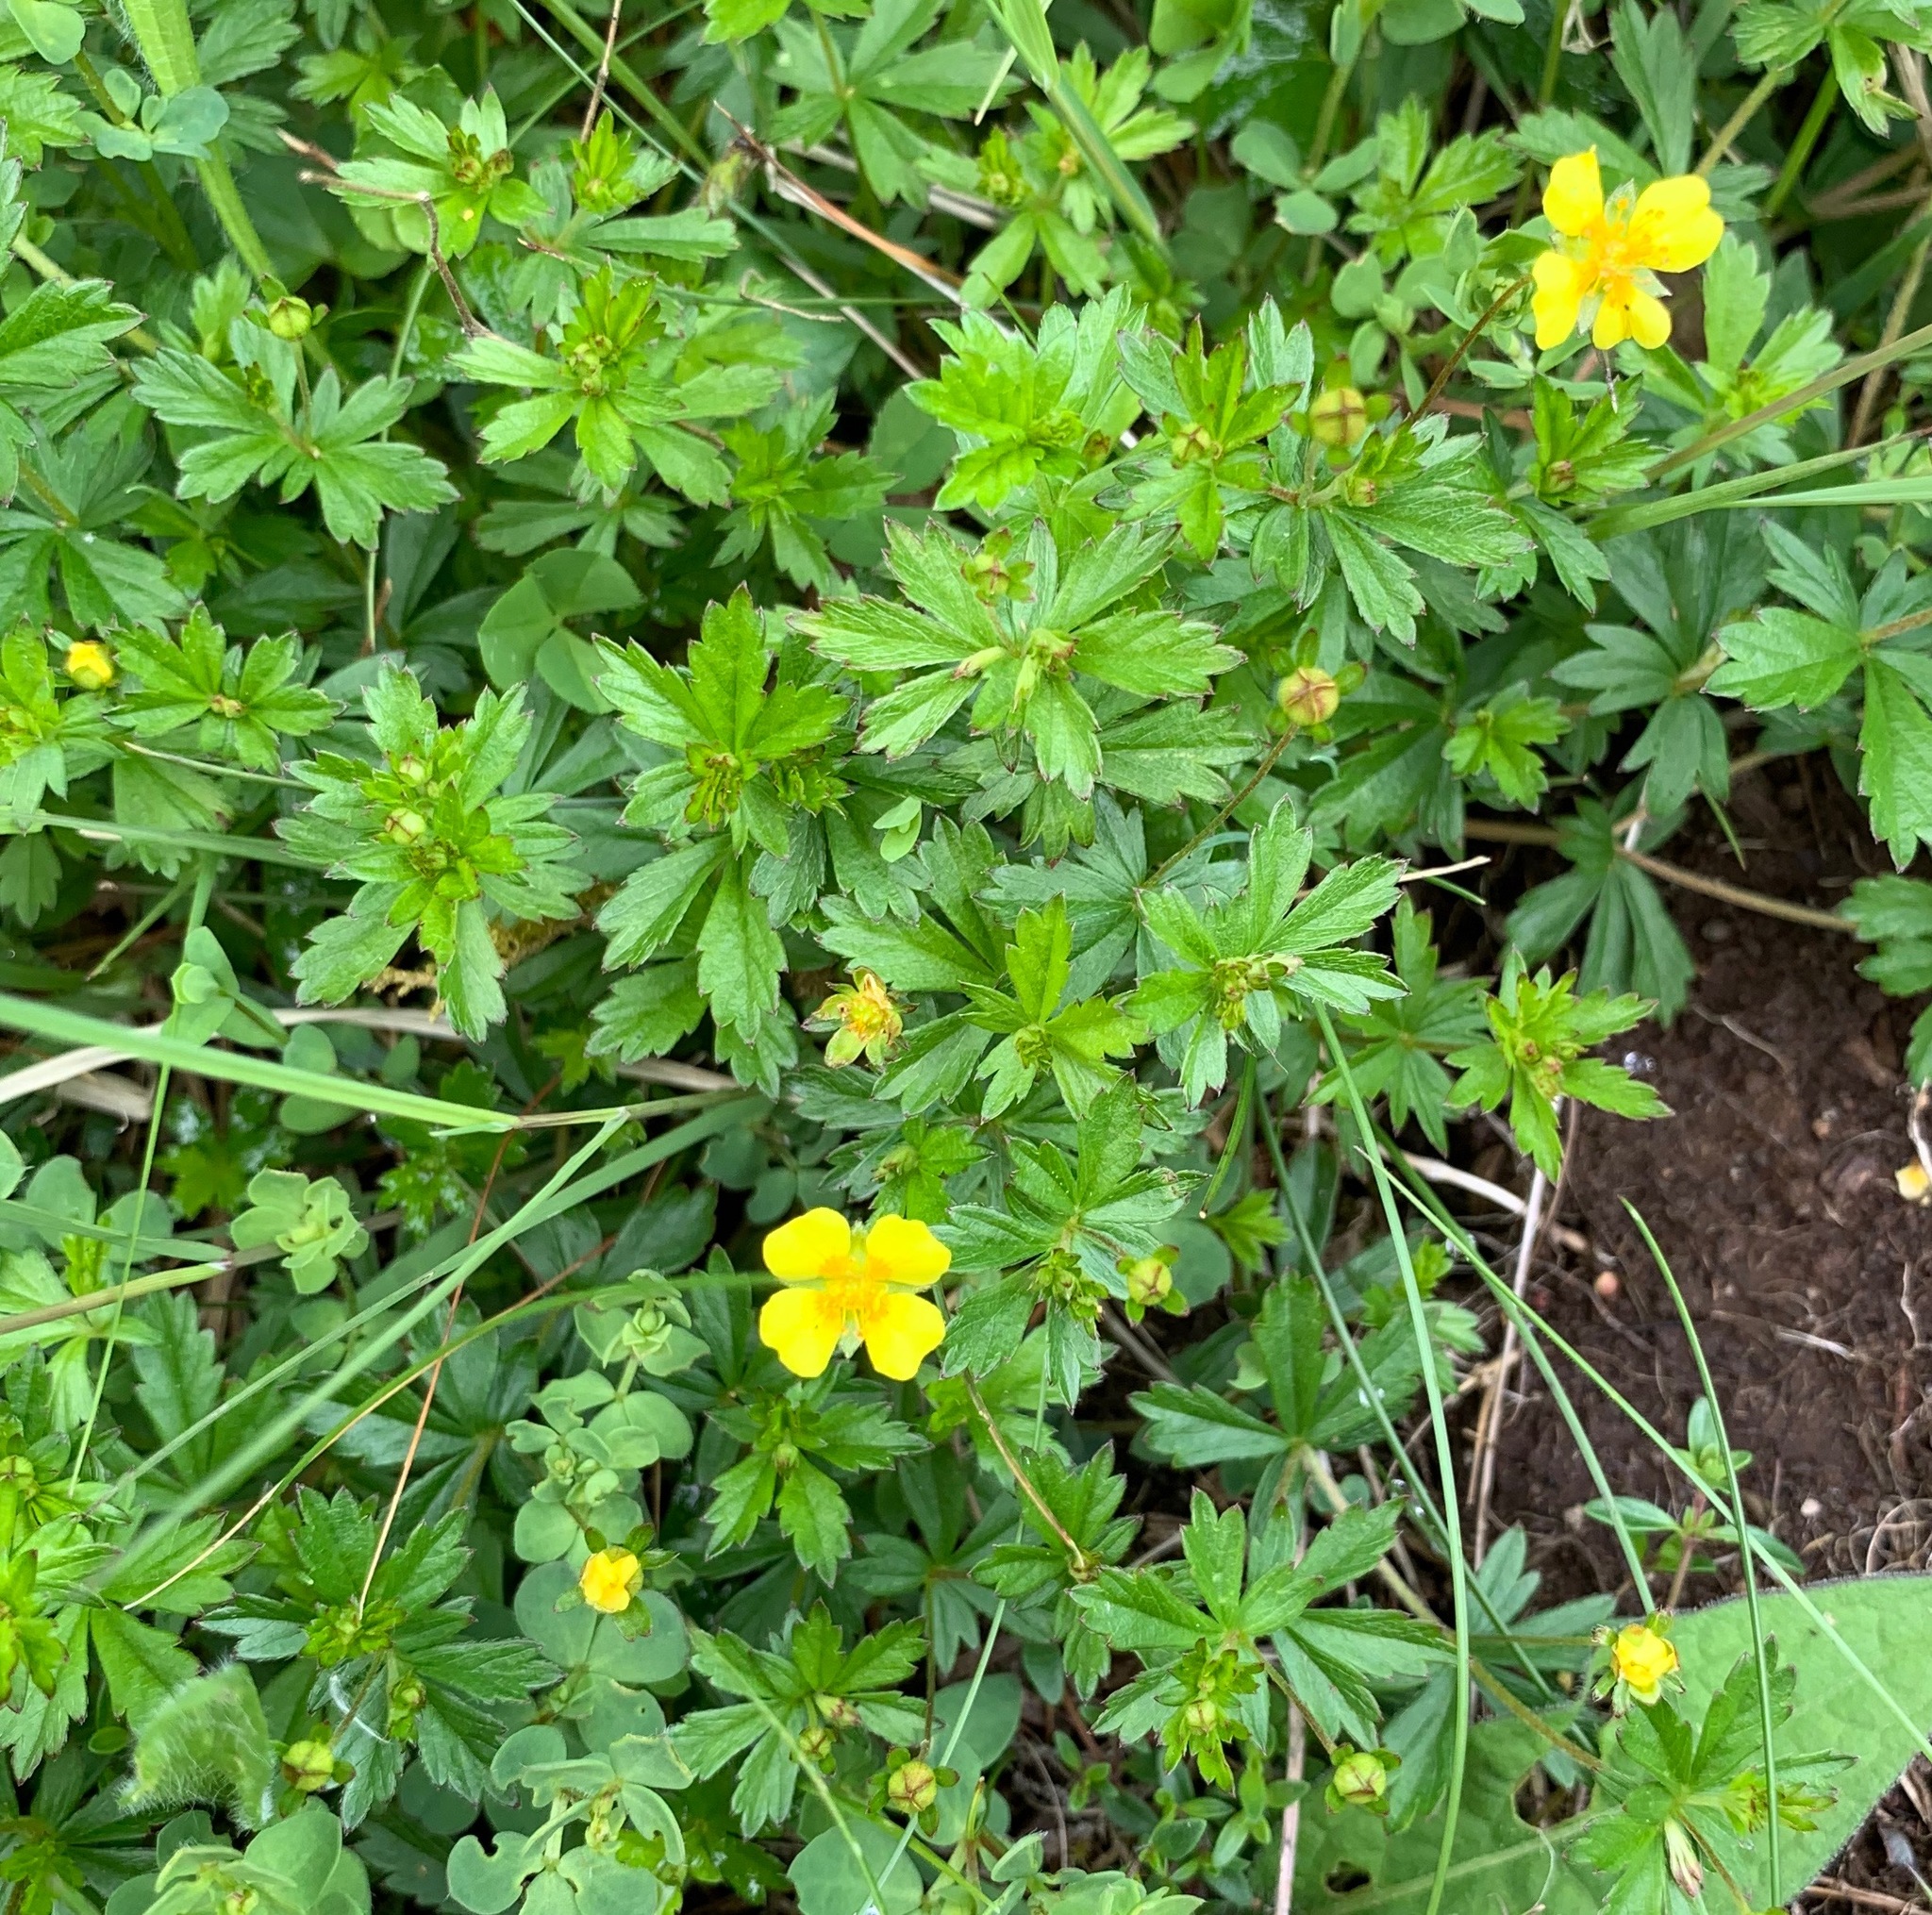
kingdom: Plantae
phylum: Tracheophyta
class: Magnoliopsida
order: Rosales
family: Rosaceae
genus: Potentilla
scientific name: Potentilla erecta
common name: Tormentil
